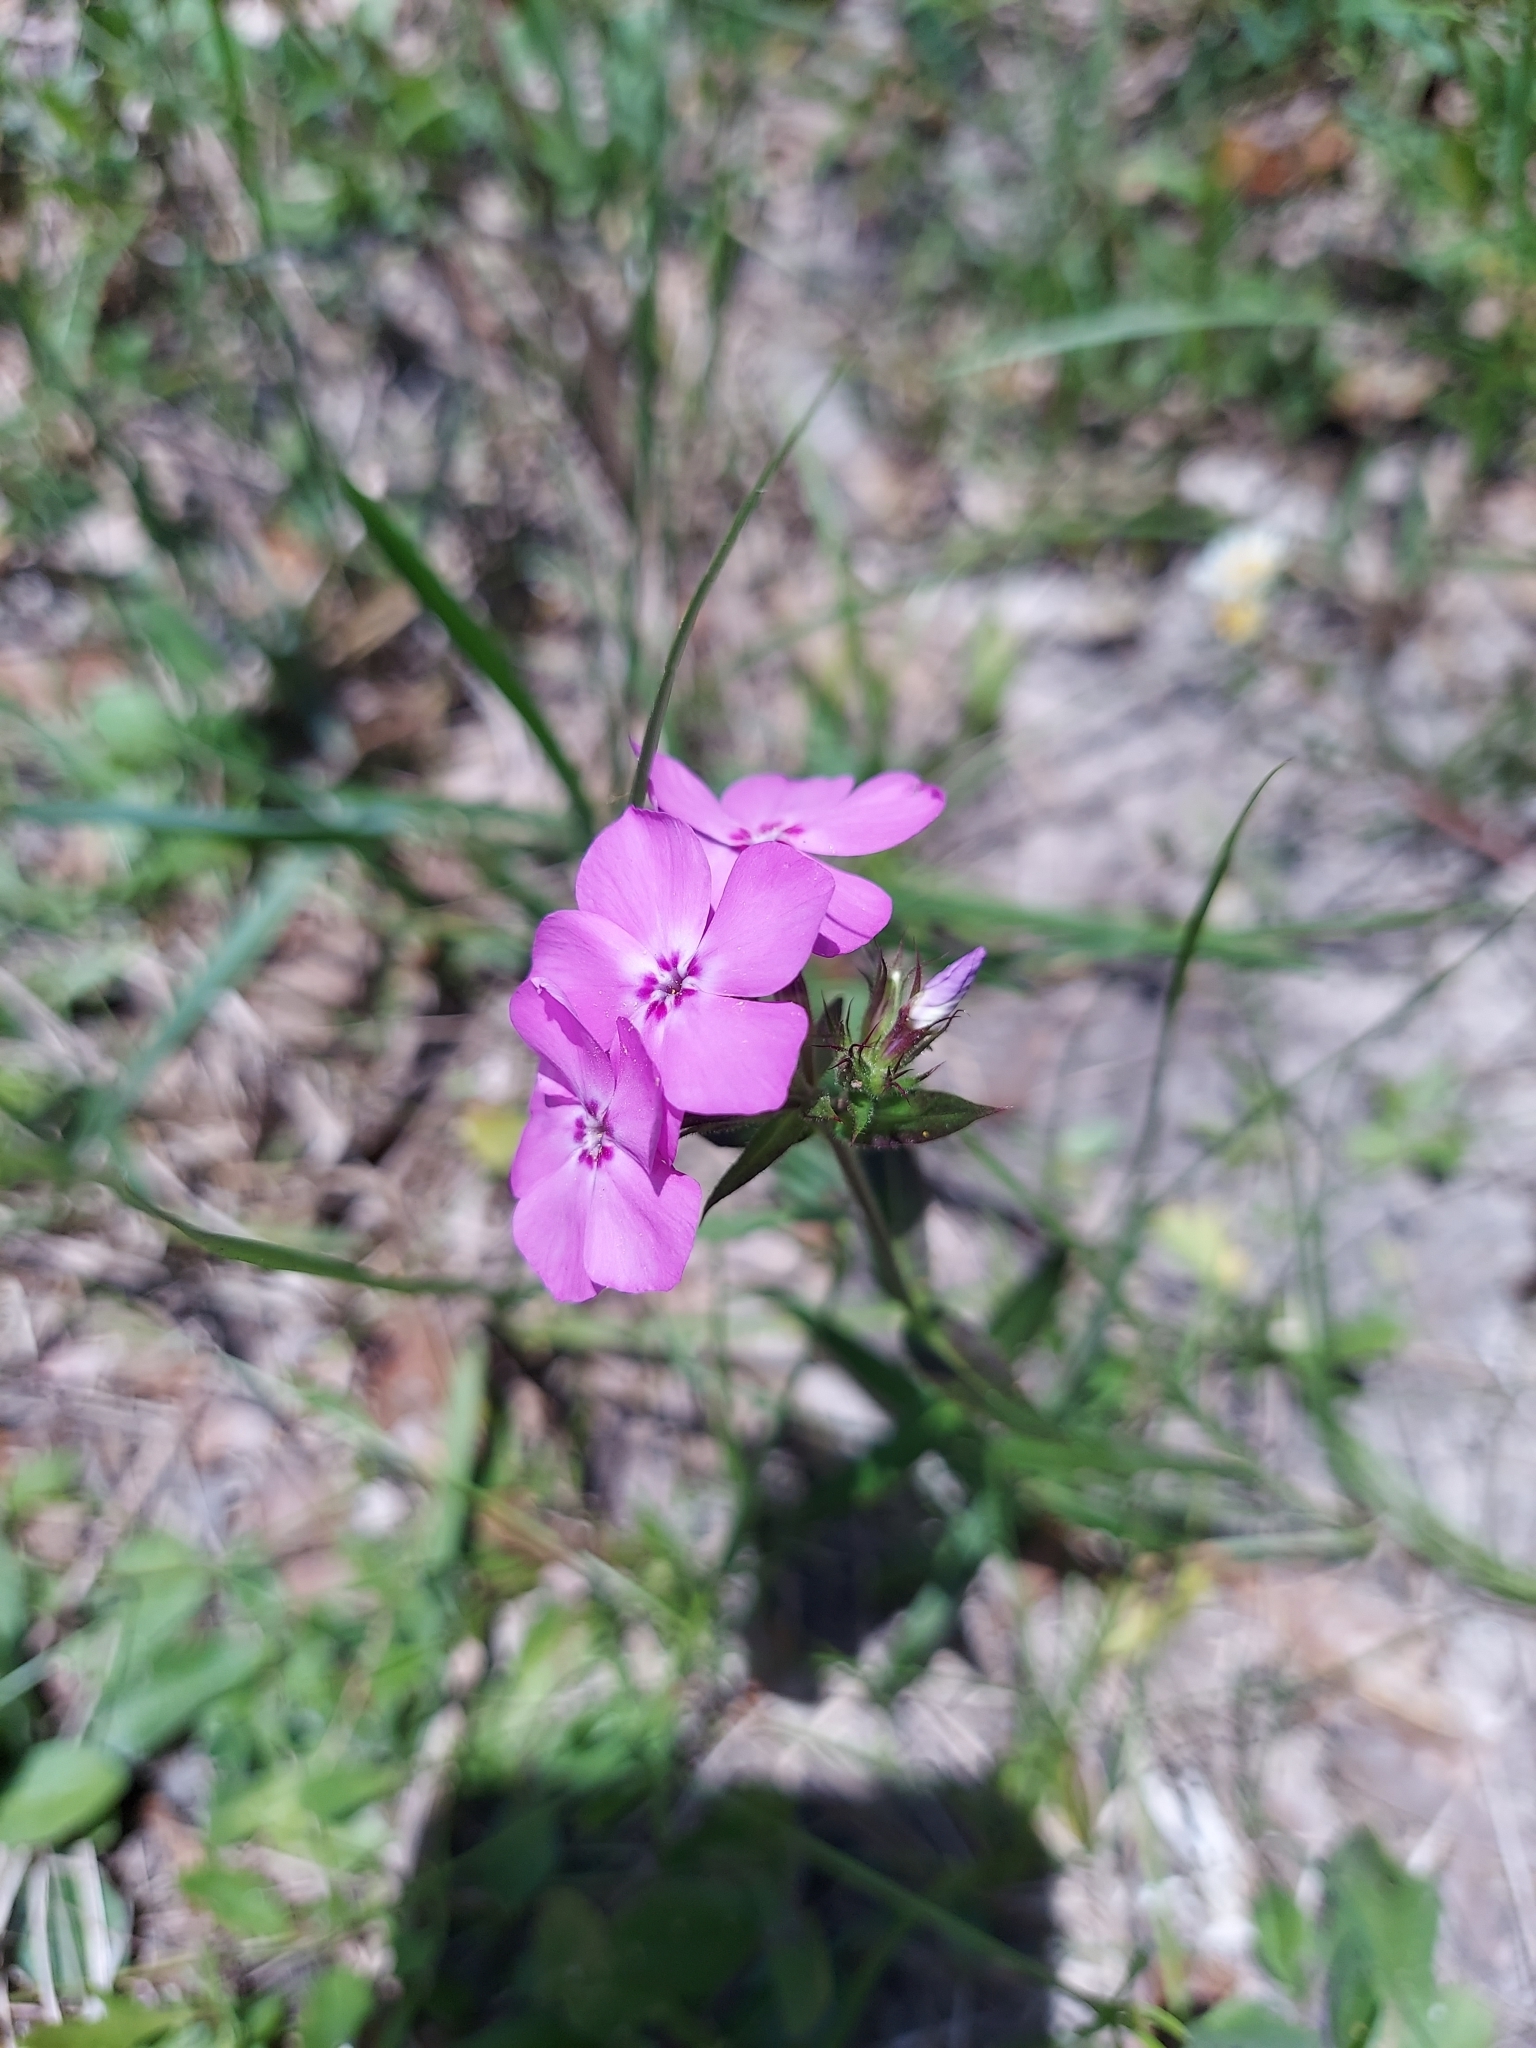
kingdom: Plantae
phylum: Tracheophyta
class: Magnoliopsida
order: Ericales
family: Polemoniaceae
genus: Phlox
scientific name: Phlox pilosa
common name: Prairie phlox
